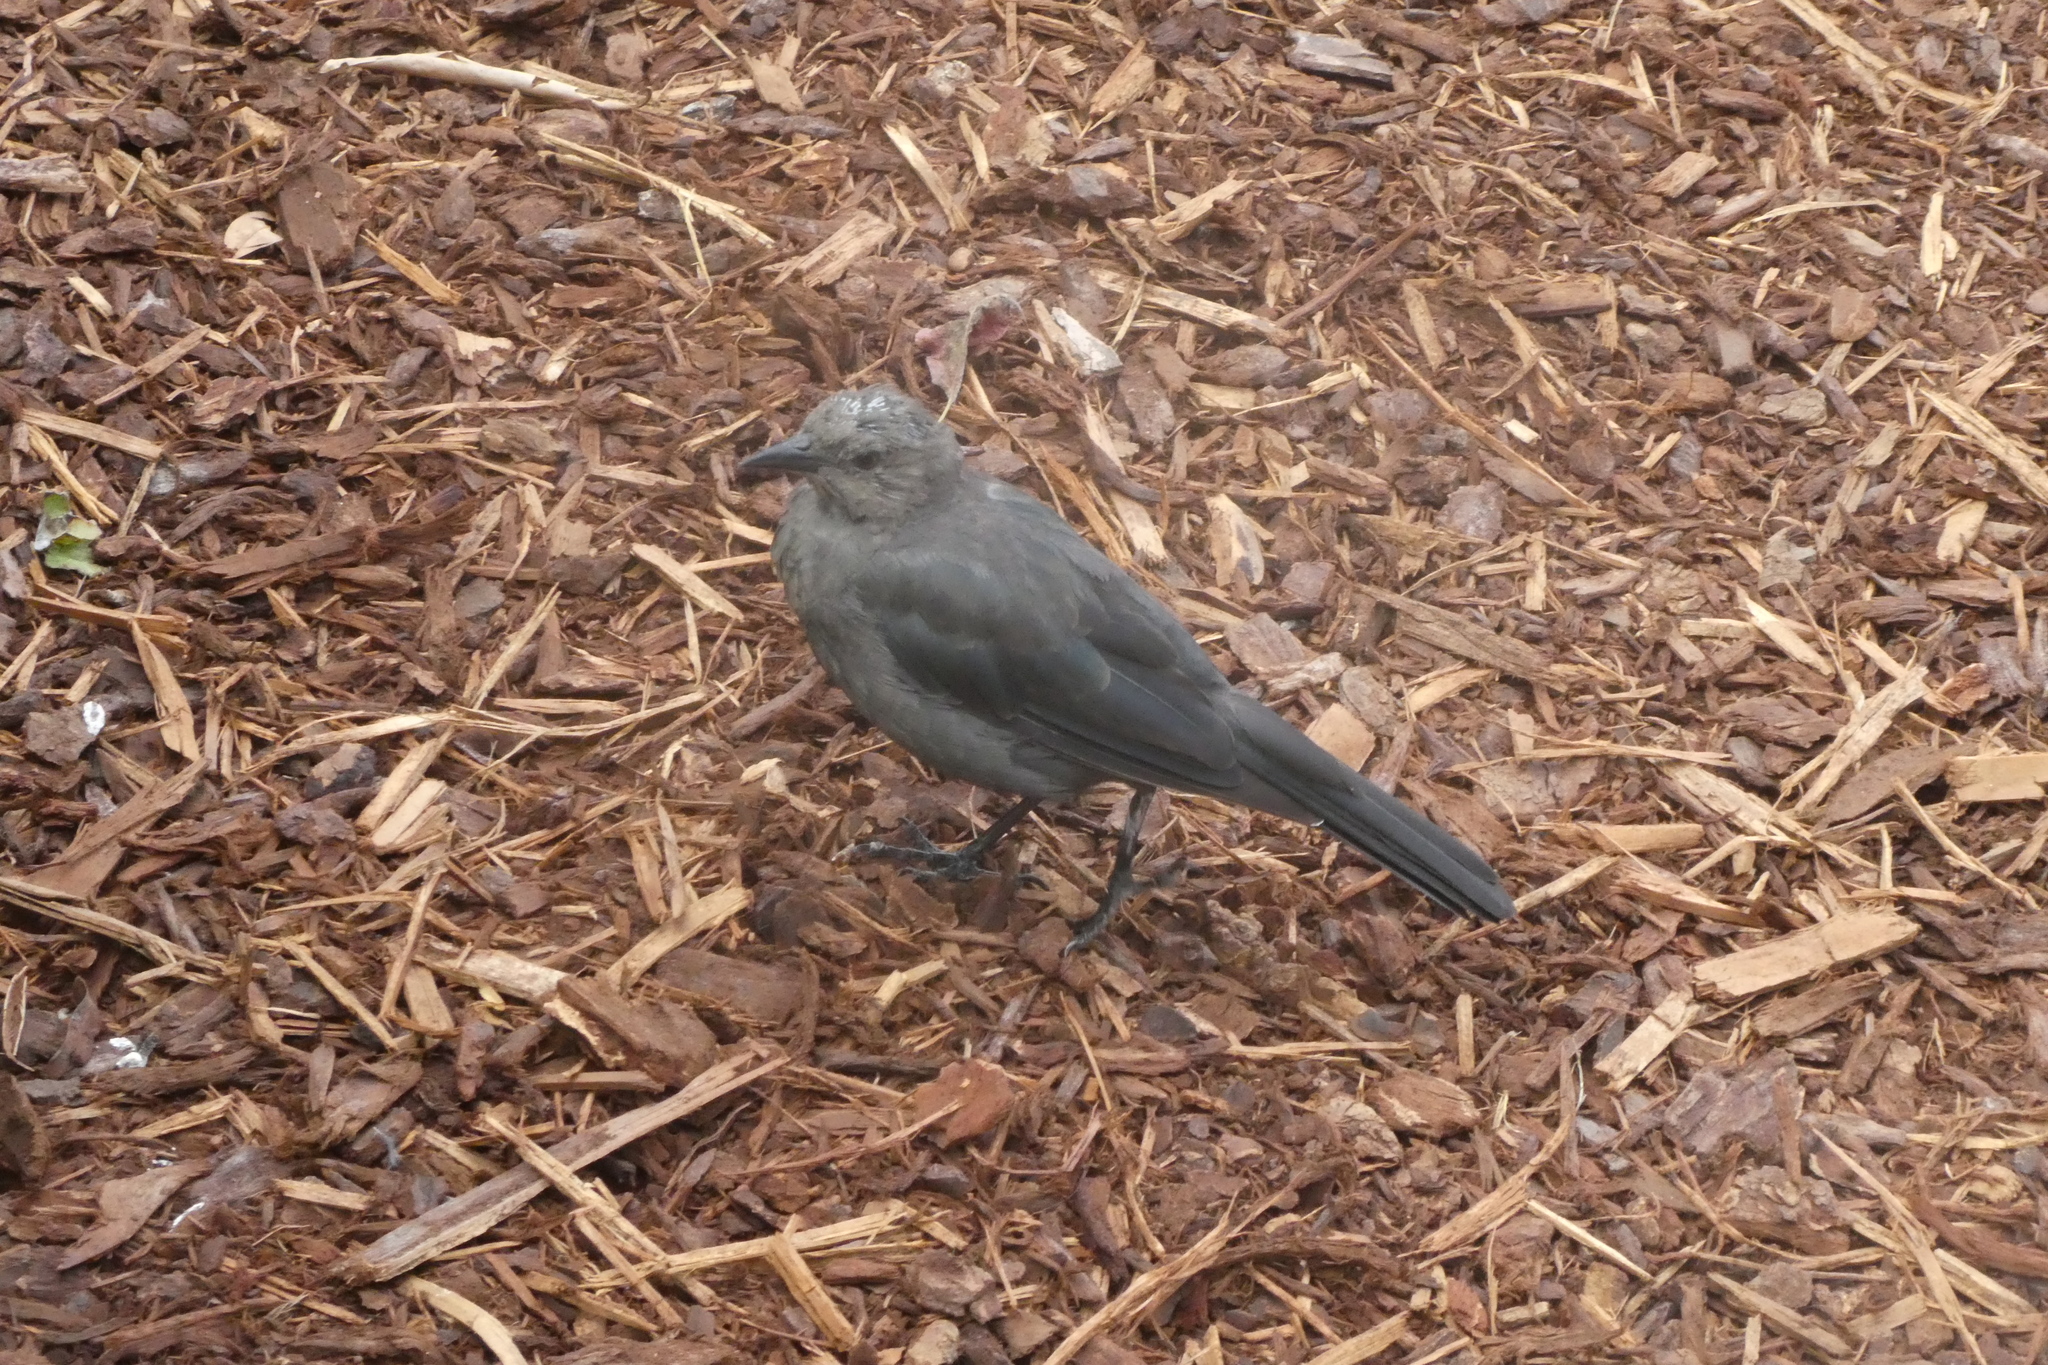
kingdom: Animalia
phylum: Chordata
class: Aves
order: Passeriformes
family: Icteridae
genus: Euphagus
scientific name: Euphagus cyanocephalus
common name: Brewer's blackbird
